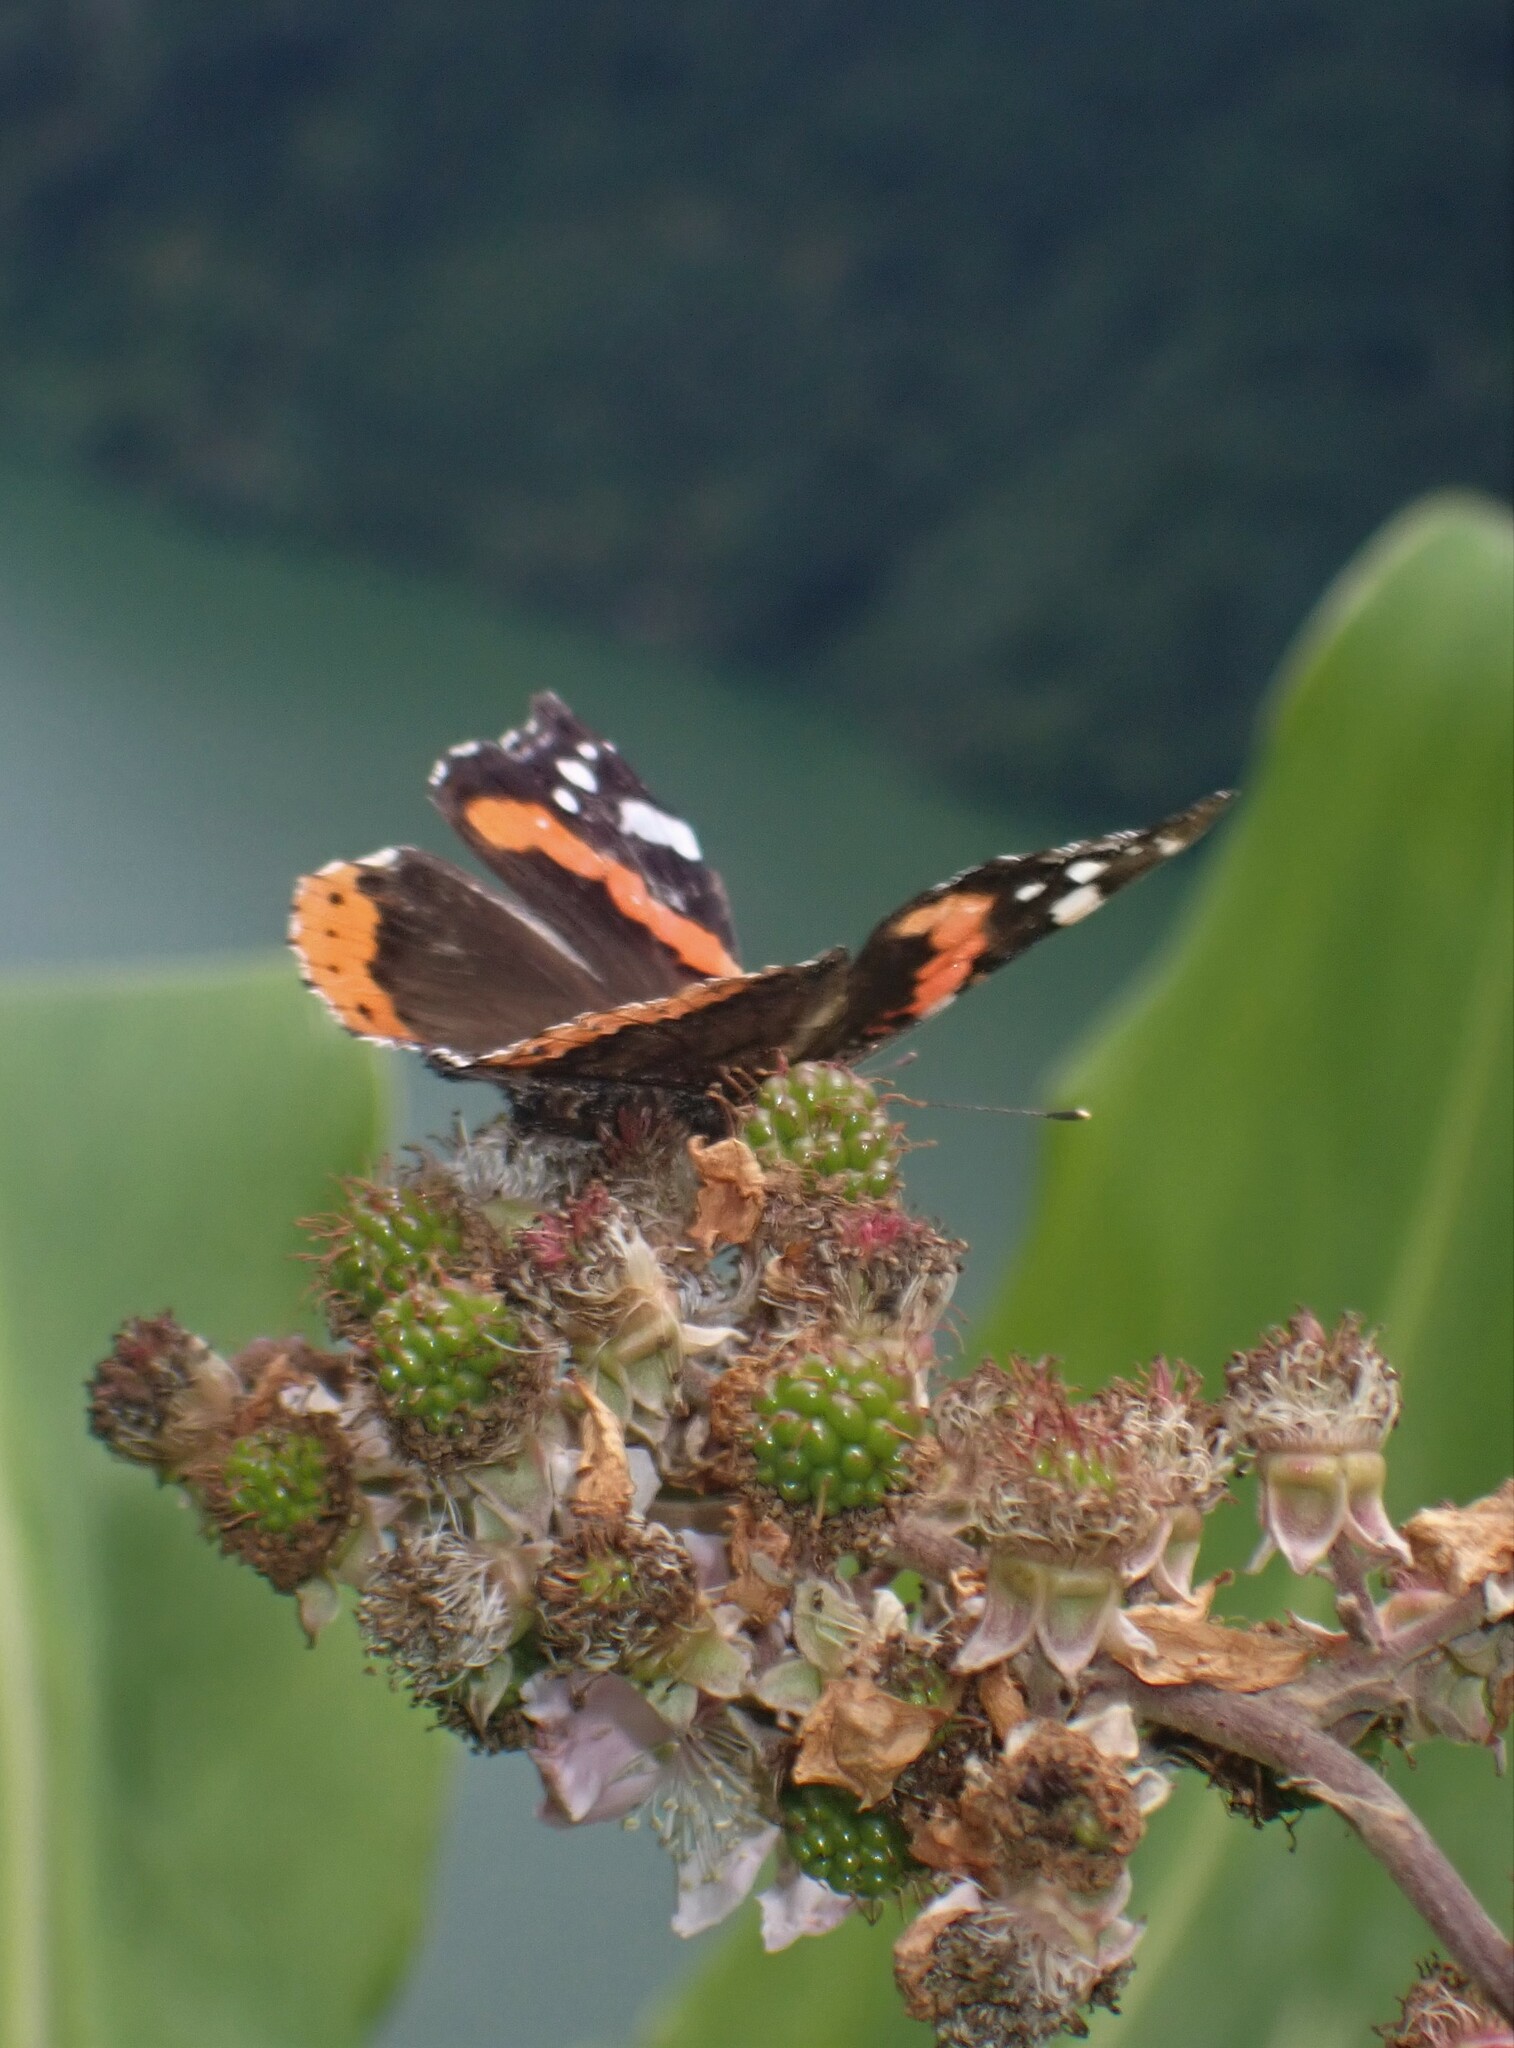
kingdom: Animalia
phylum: Arthropoda
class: Insecta
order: Lepidoptera
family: Nymphalidae
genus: Vanessa
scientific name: Vanessa atalanta
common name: Red admiral
